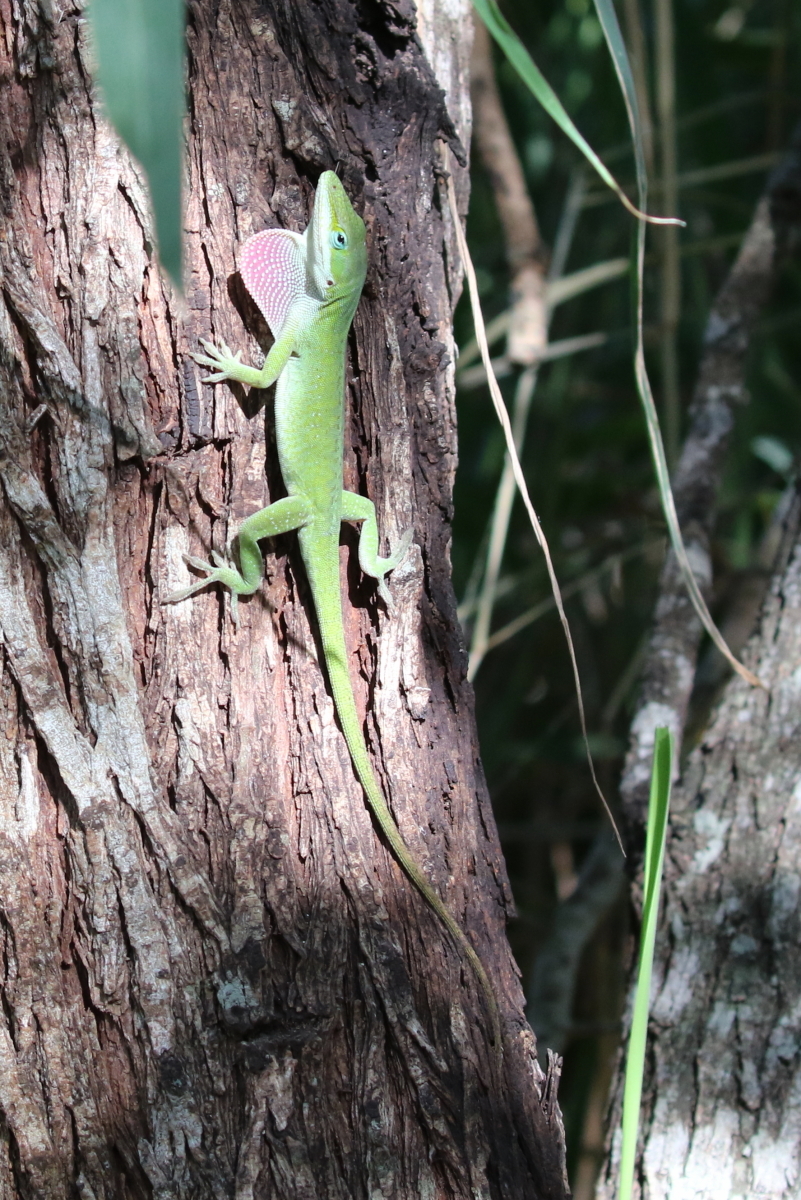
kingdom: Animalia
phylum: Chordata
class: Squamata
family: Dactyloidae
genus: Anolis
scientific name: Anolis carolinensis
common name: Green anole
